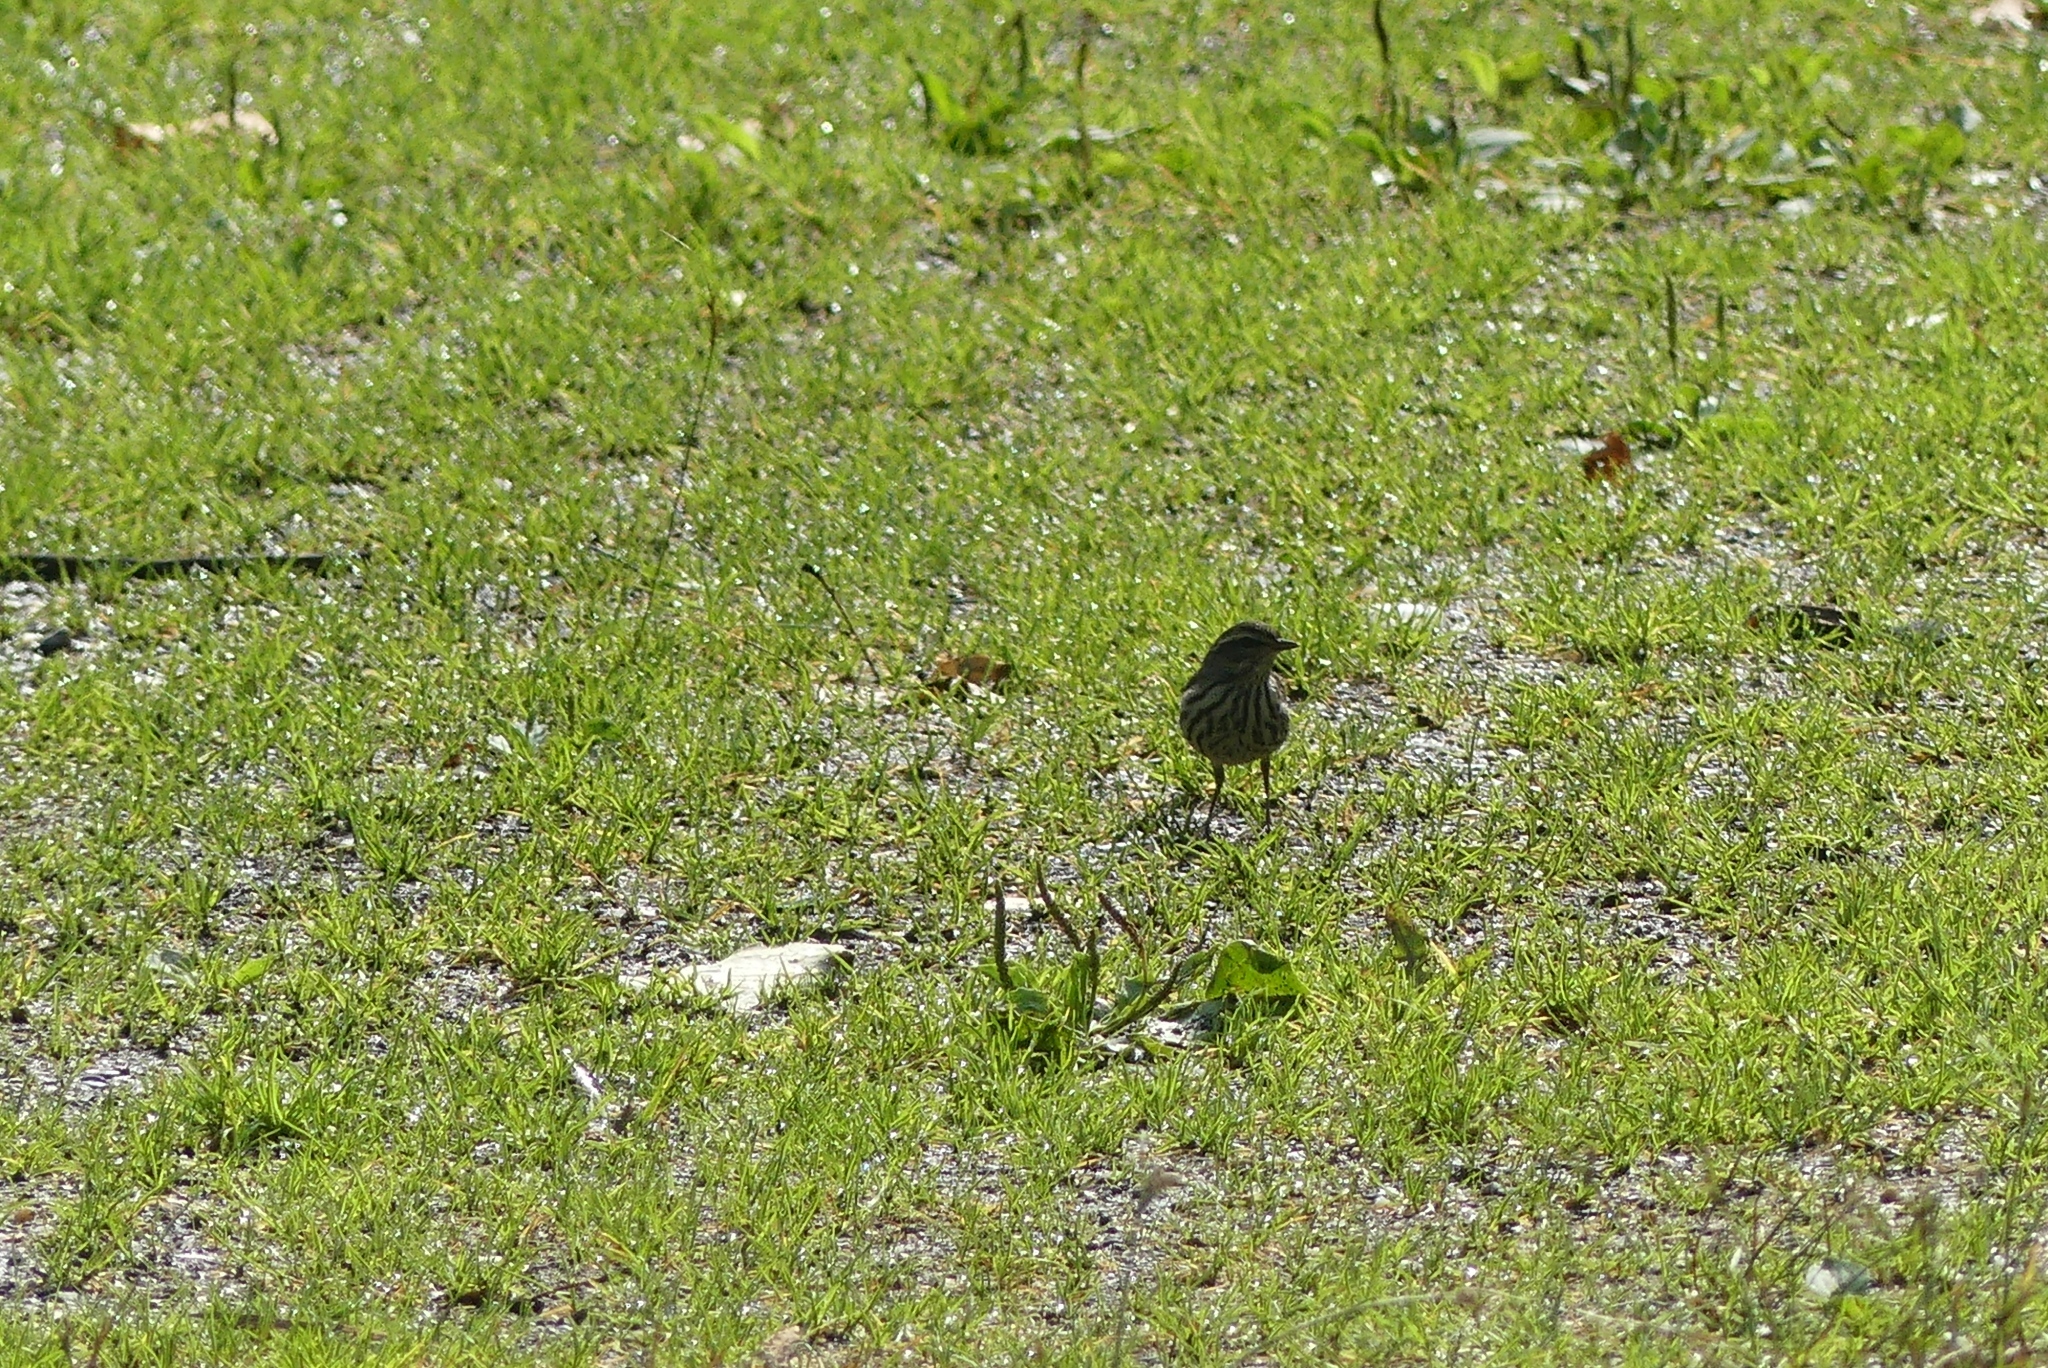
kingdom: Animalia
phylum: Chordata
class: Aves
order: Passeriformes
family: Parulidae
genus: Parkesia
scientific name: Parkesia noveboracensis
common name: Northern waterthrush
